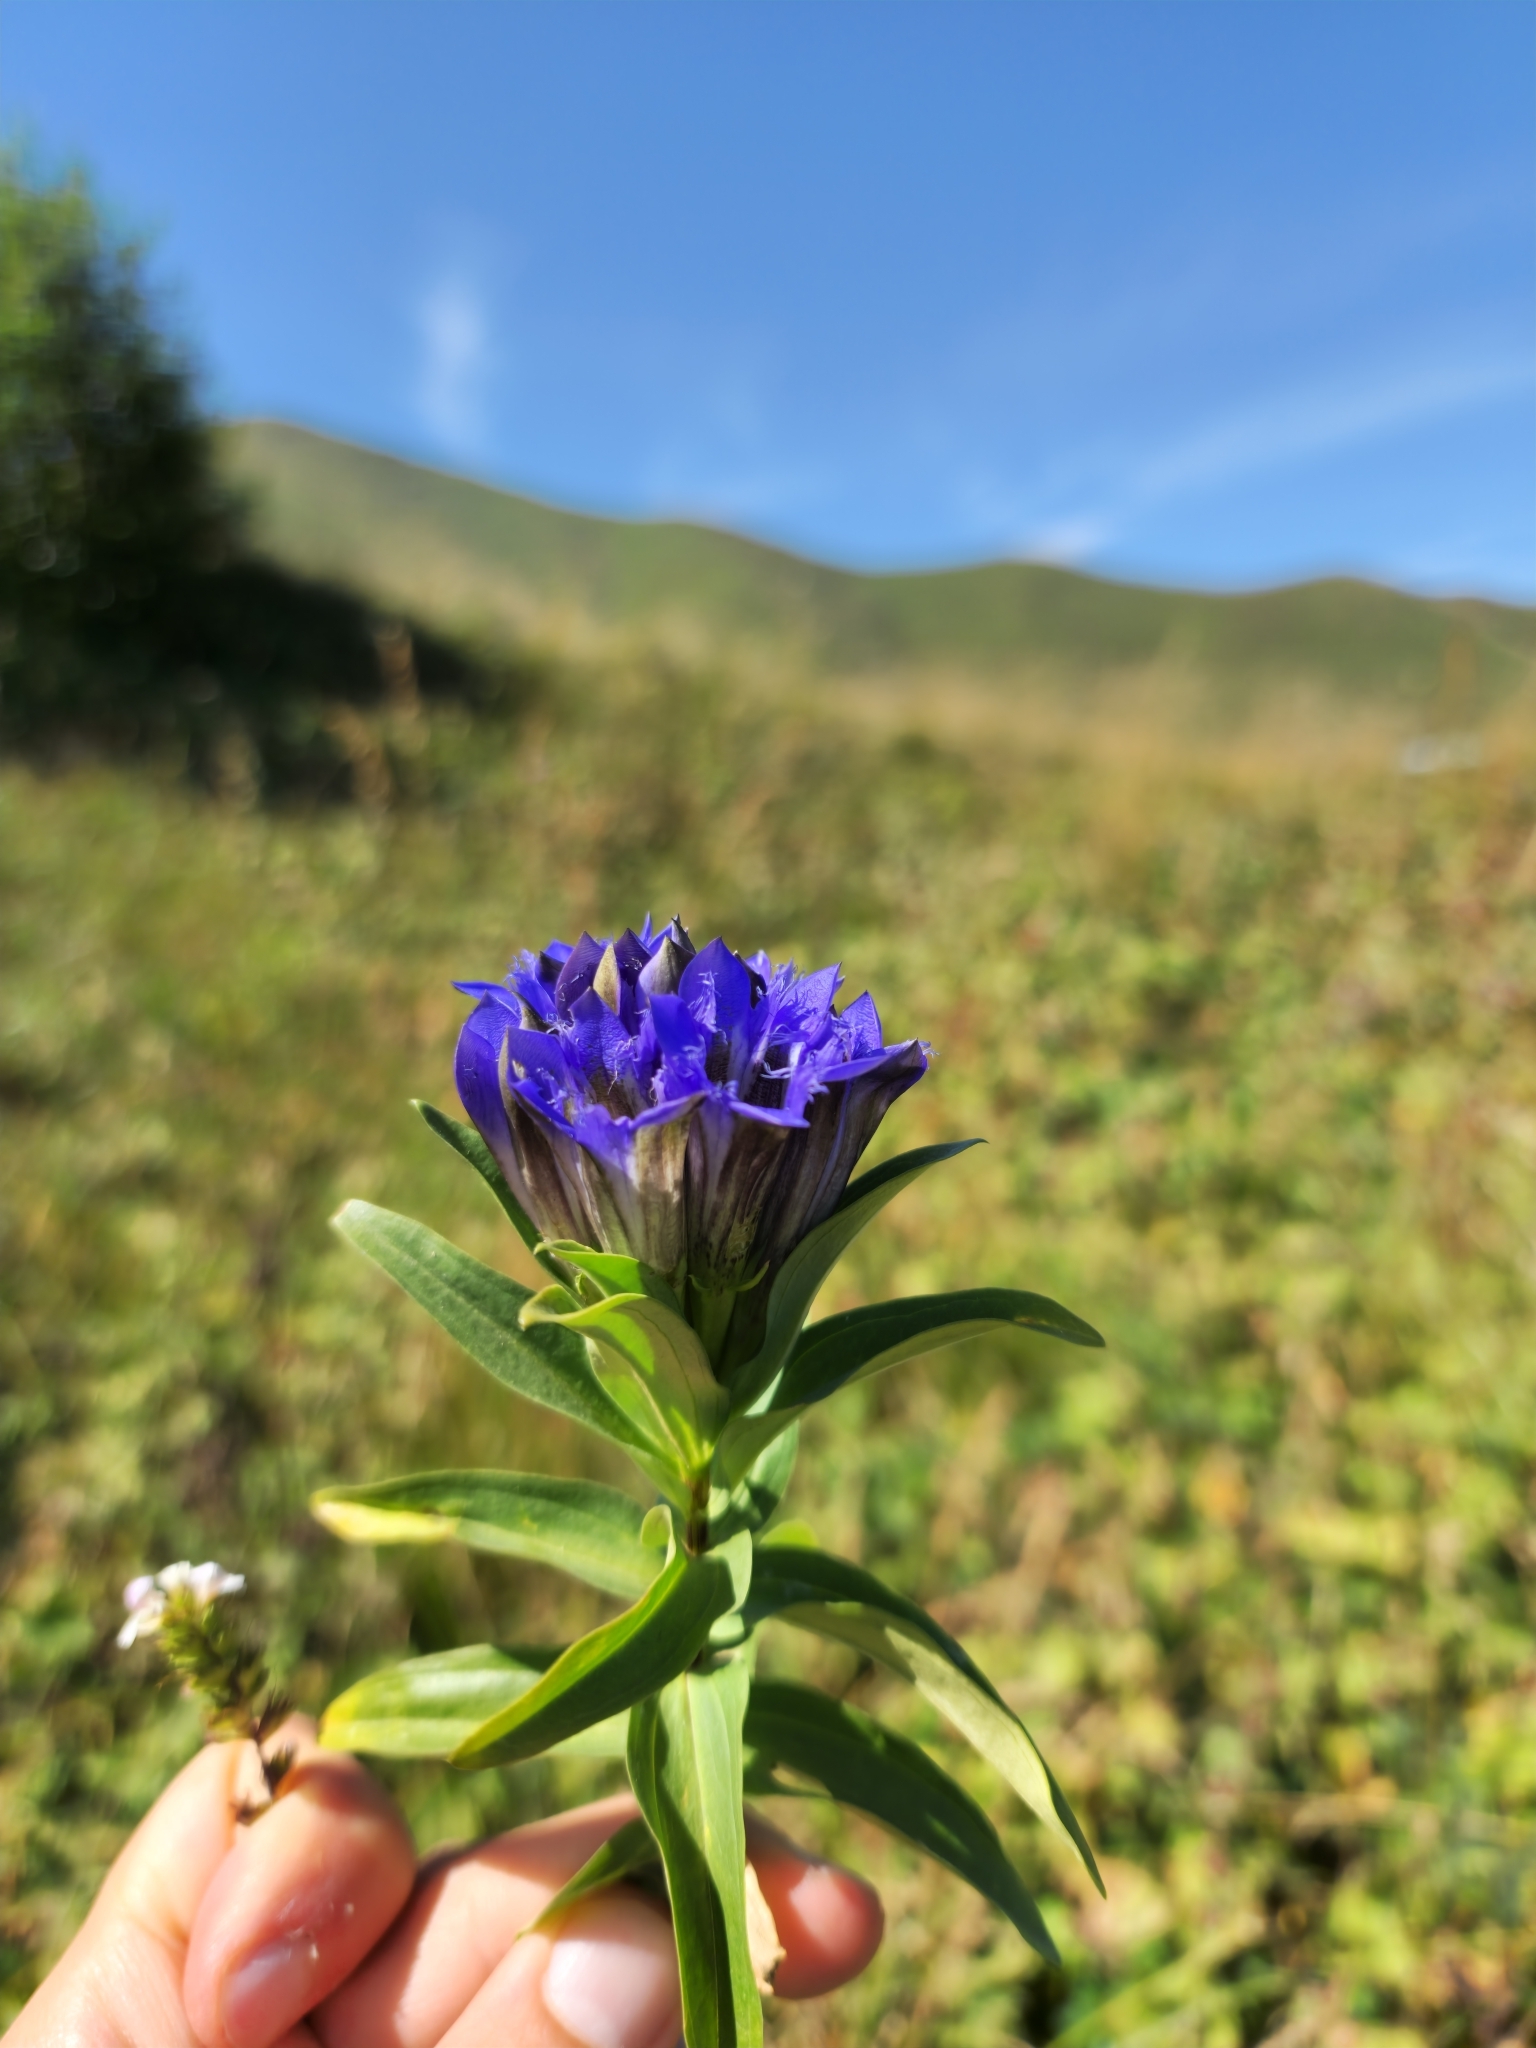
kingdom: Plantae
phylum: Tracheophyta
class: Magnoliopsida
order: Gentianales
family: Gentianaceae
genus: Gentiana
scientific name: Gentiana septemfida
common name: Crested gentian
